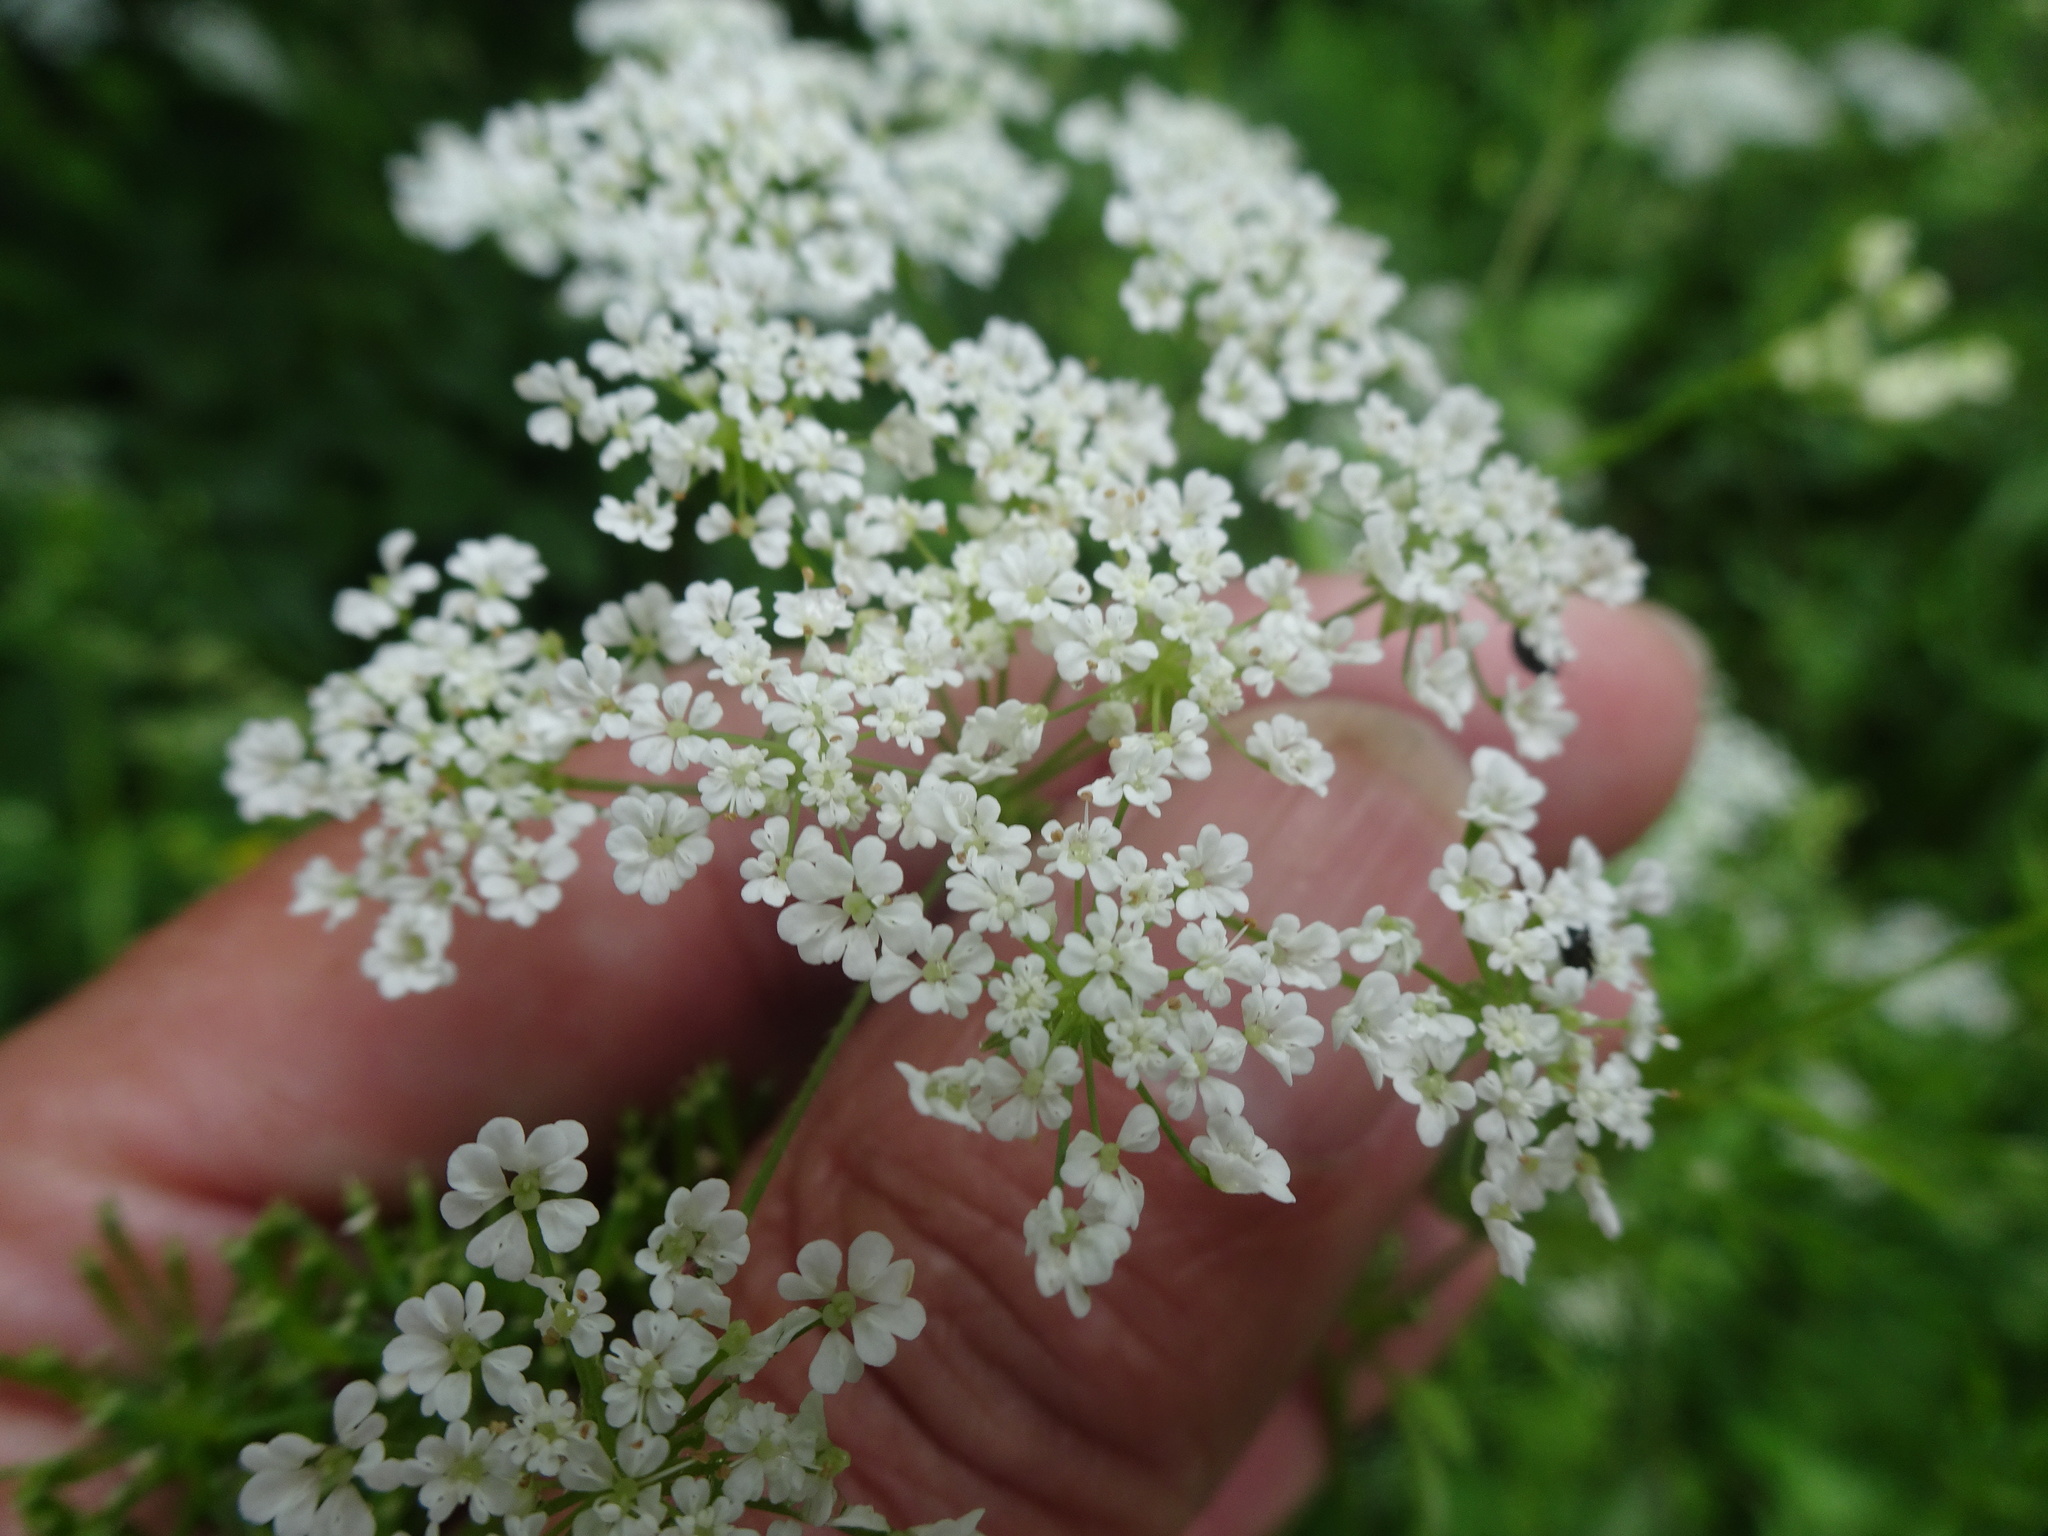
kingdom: Plantae
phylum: Tracheophyta
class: Magnoliopsida
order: Apiales
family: Apiaceae
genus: Chaerophyllum
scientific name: Chaerophyllum temulum
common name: Rough chervil
